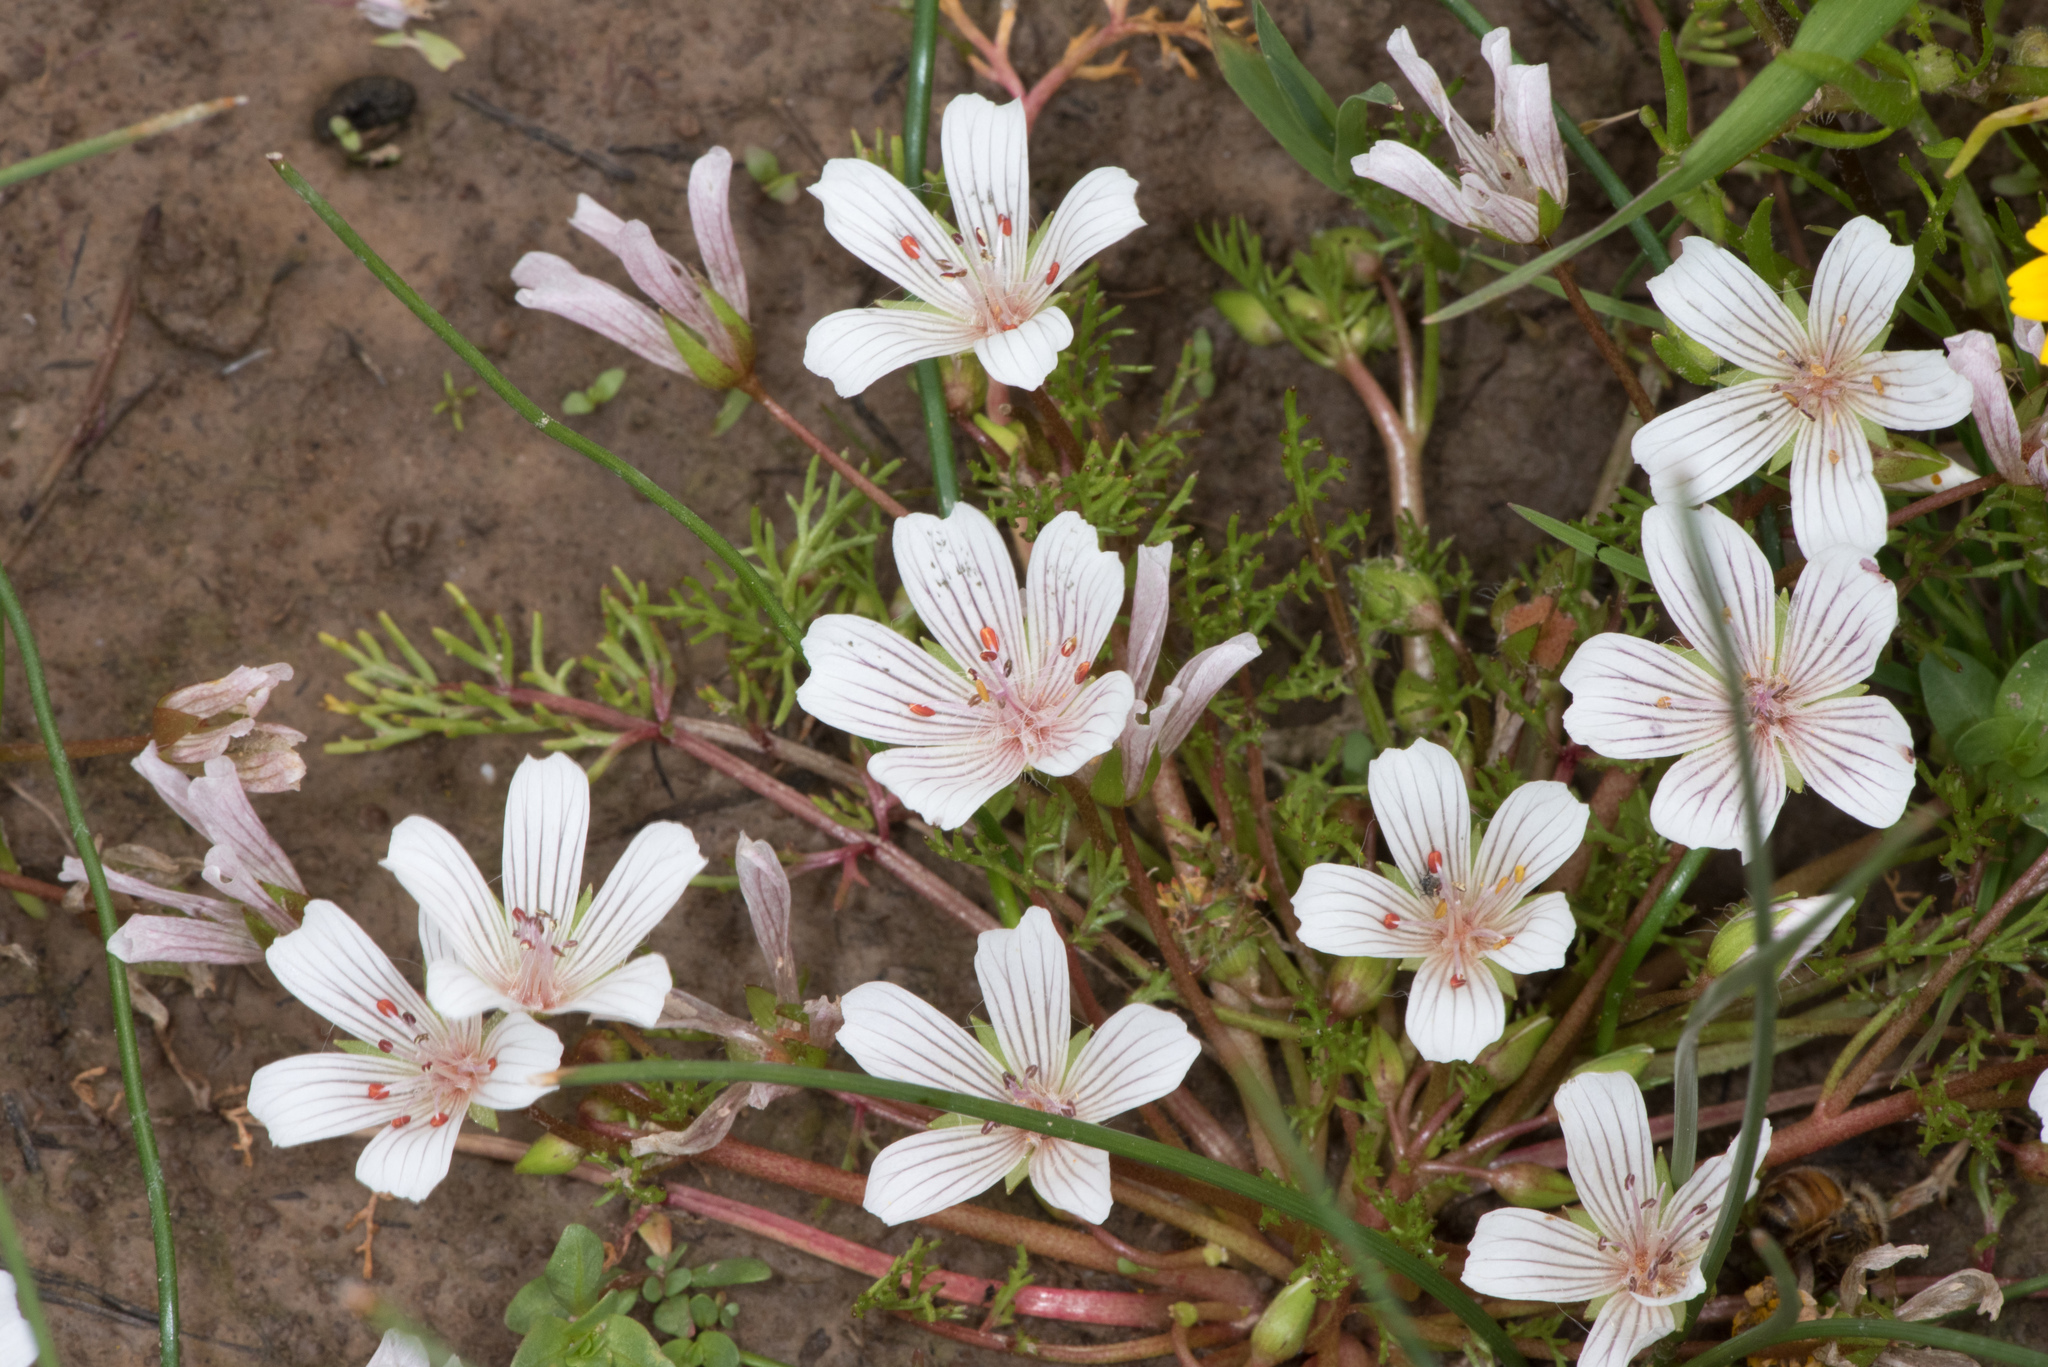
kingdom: Plantae
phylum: Tracheophyta
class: Magnoliopsida
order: Brassicales
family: Limnanthaceae
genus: Limnanthes
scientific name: Limnanthes douglasii
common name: Meadow-foam
